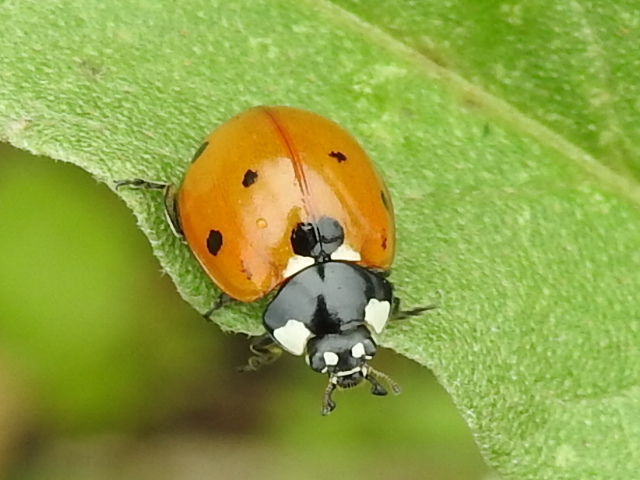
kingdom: Animalia
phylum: Arthropoda
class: Insecta
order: Coleoptera
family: Coccinellidae
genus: Coccinella
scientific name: Coccinella septempunctata
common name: Sevenspotted lady beetle
